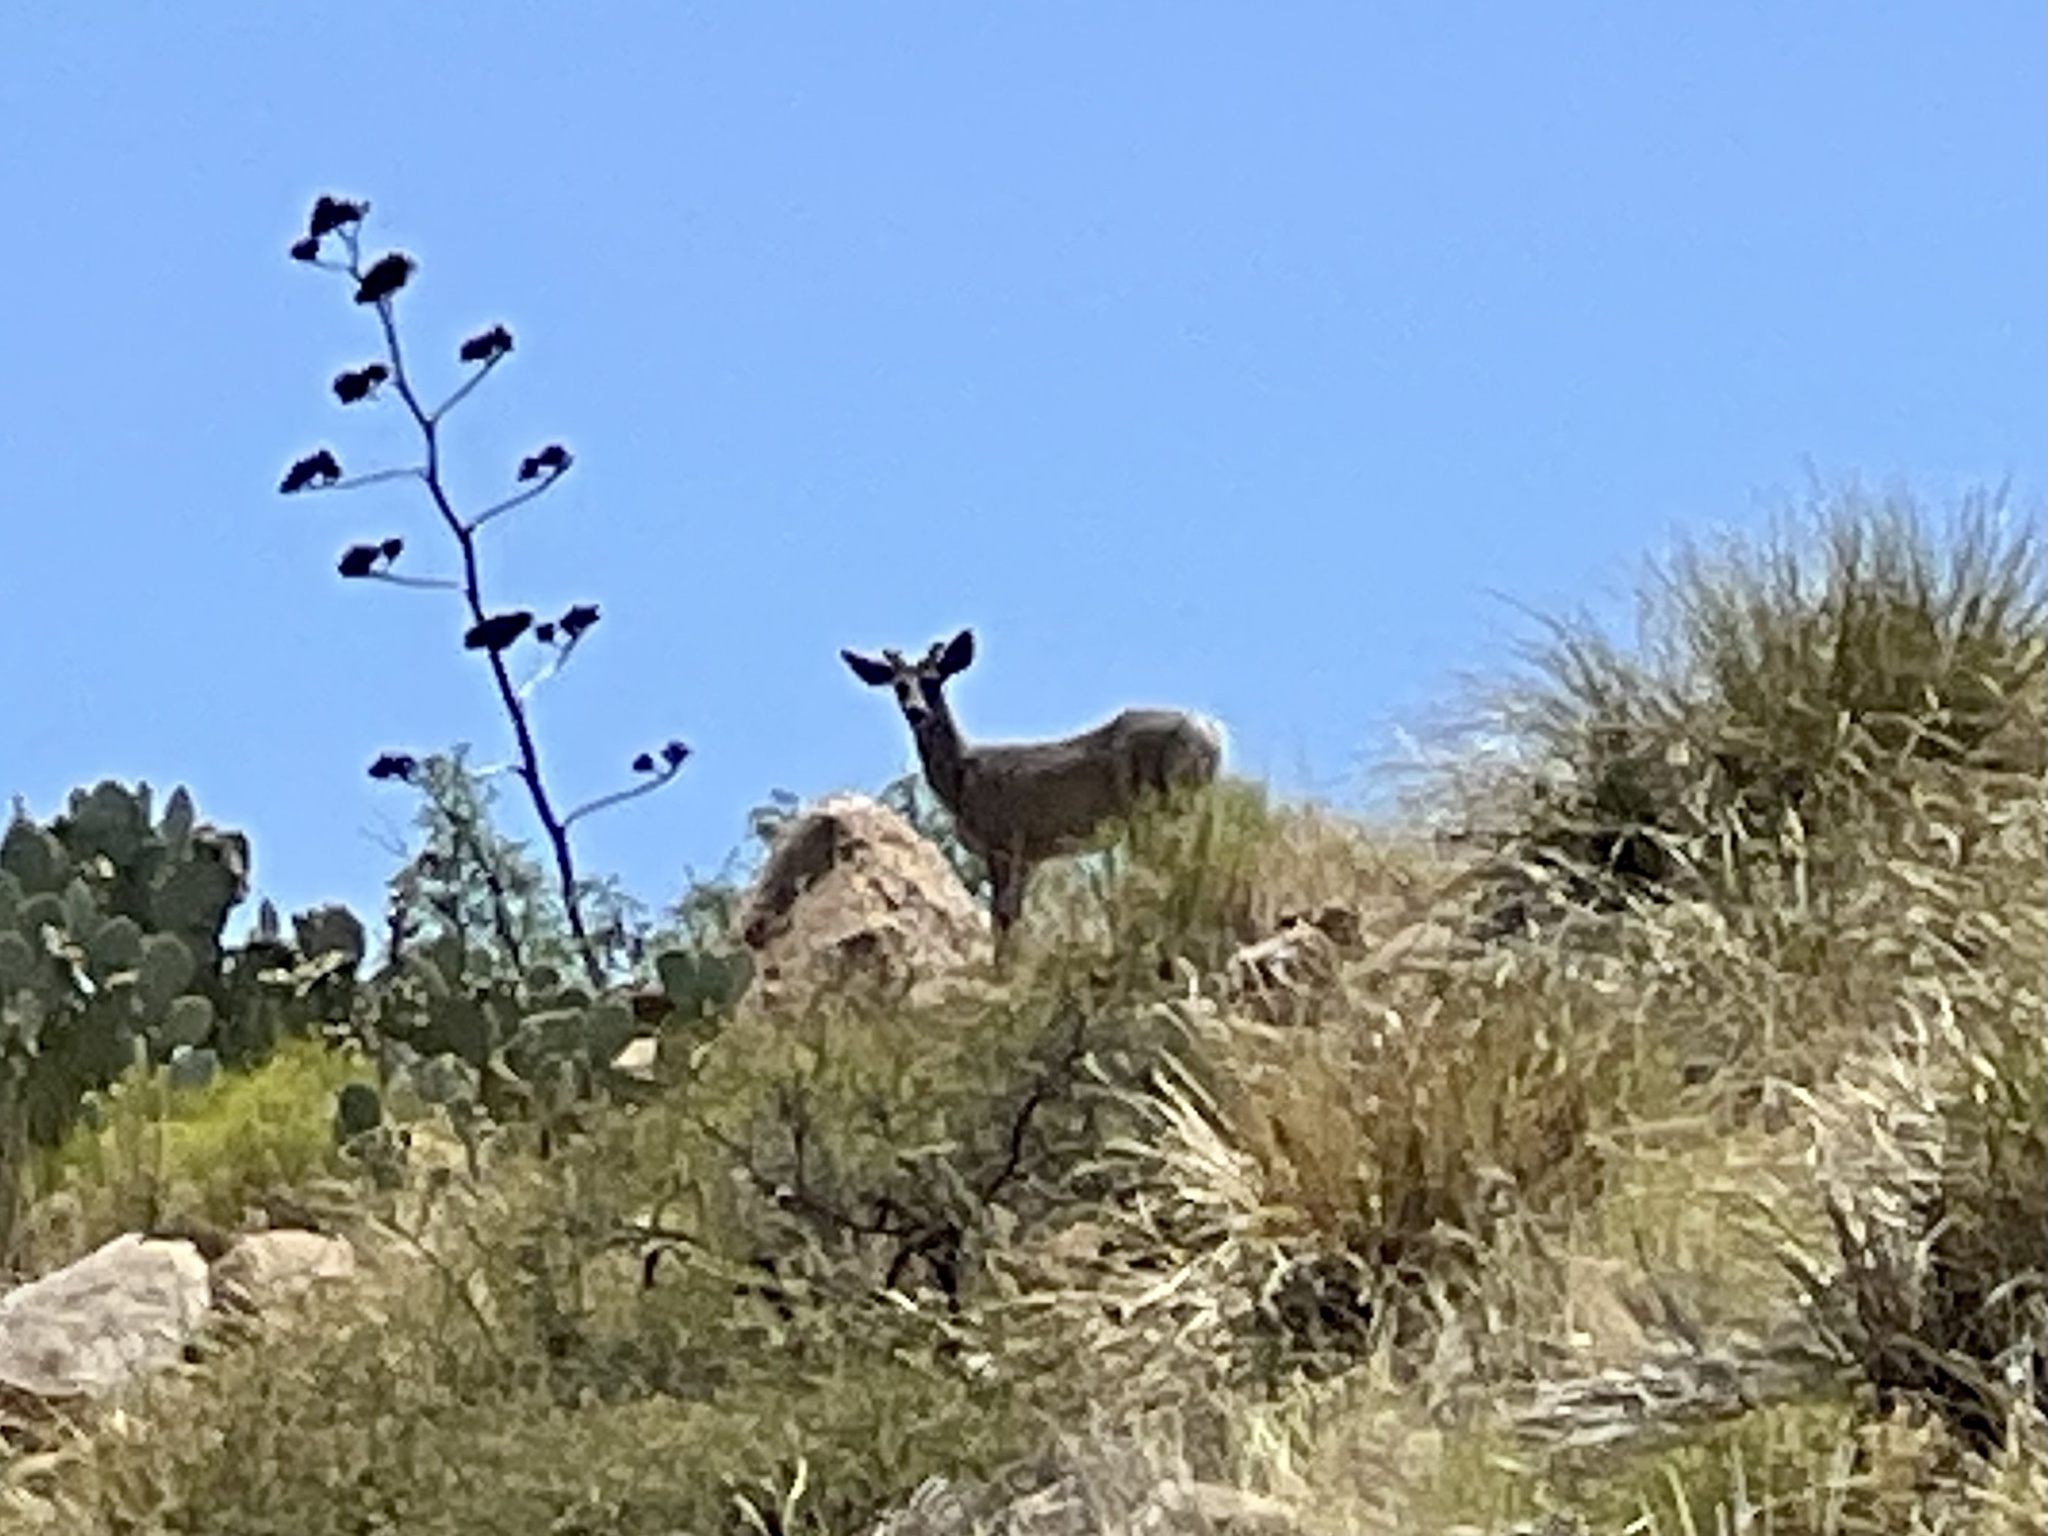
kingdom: Animalia
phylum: Chordata
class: Mammalia
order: Artiodactyla
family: Cervidae
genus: Odocoileus
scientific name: Odocoileus hemionus
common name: Mule deer
